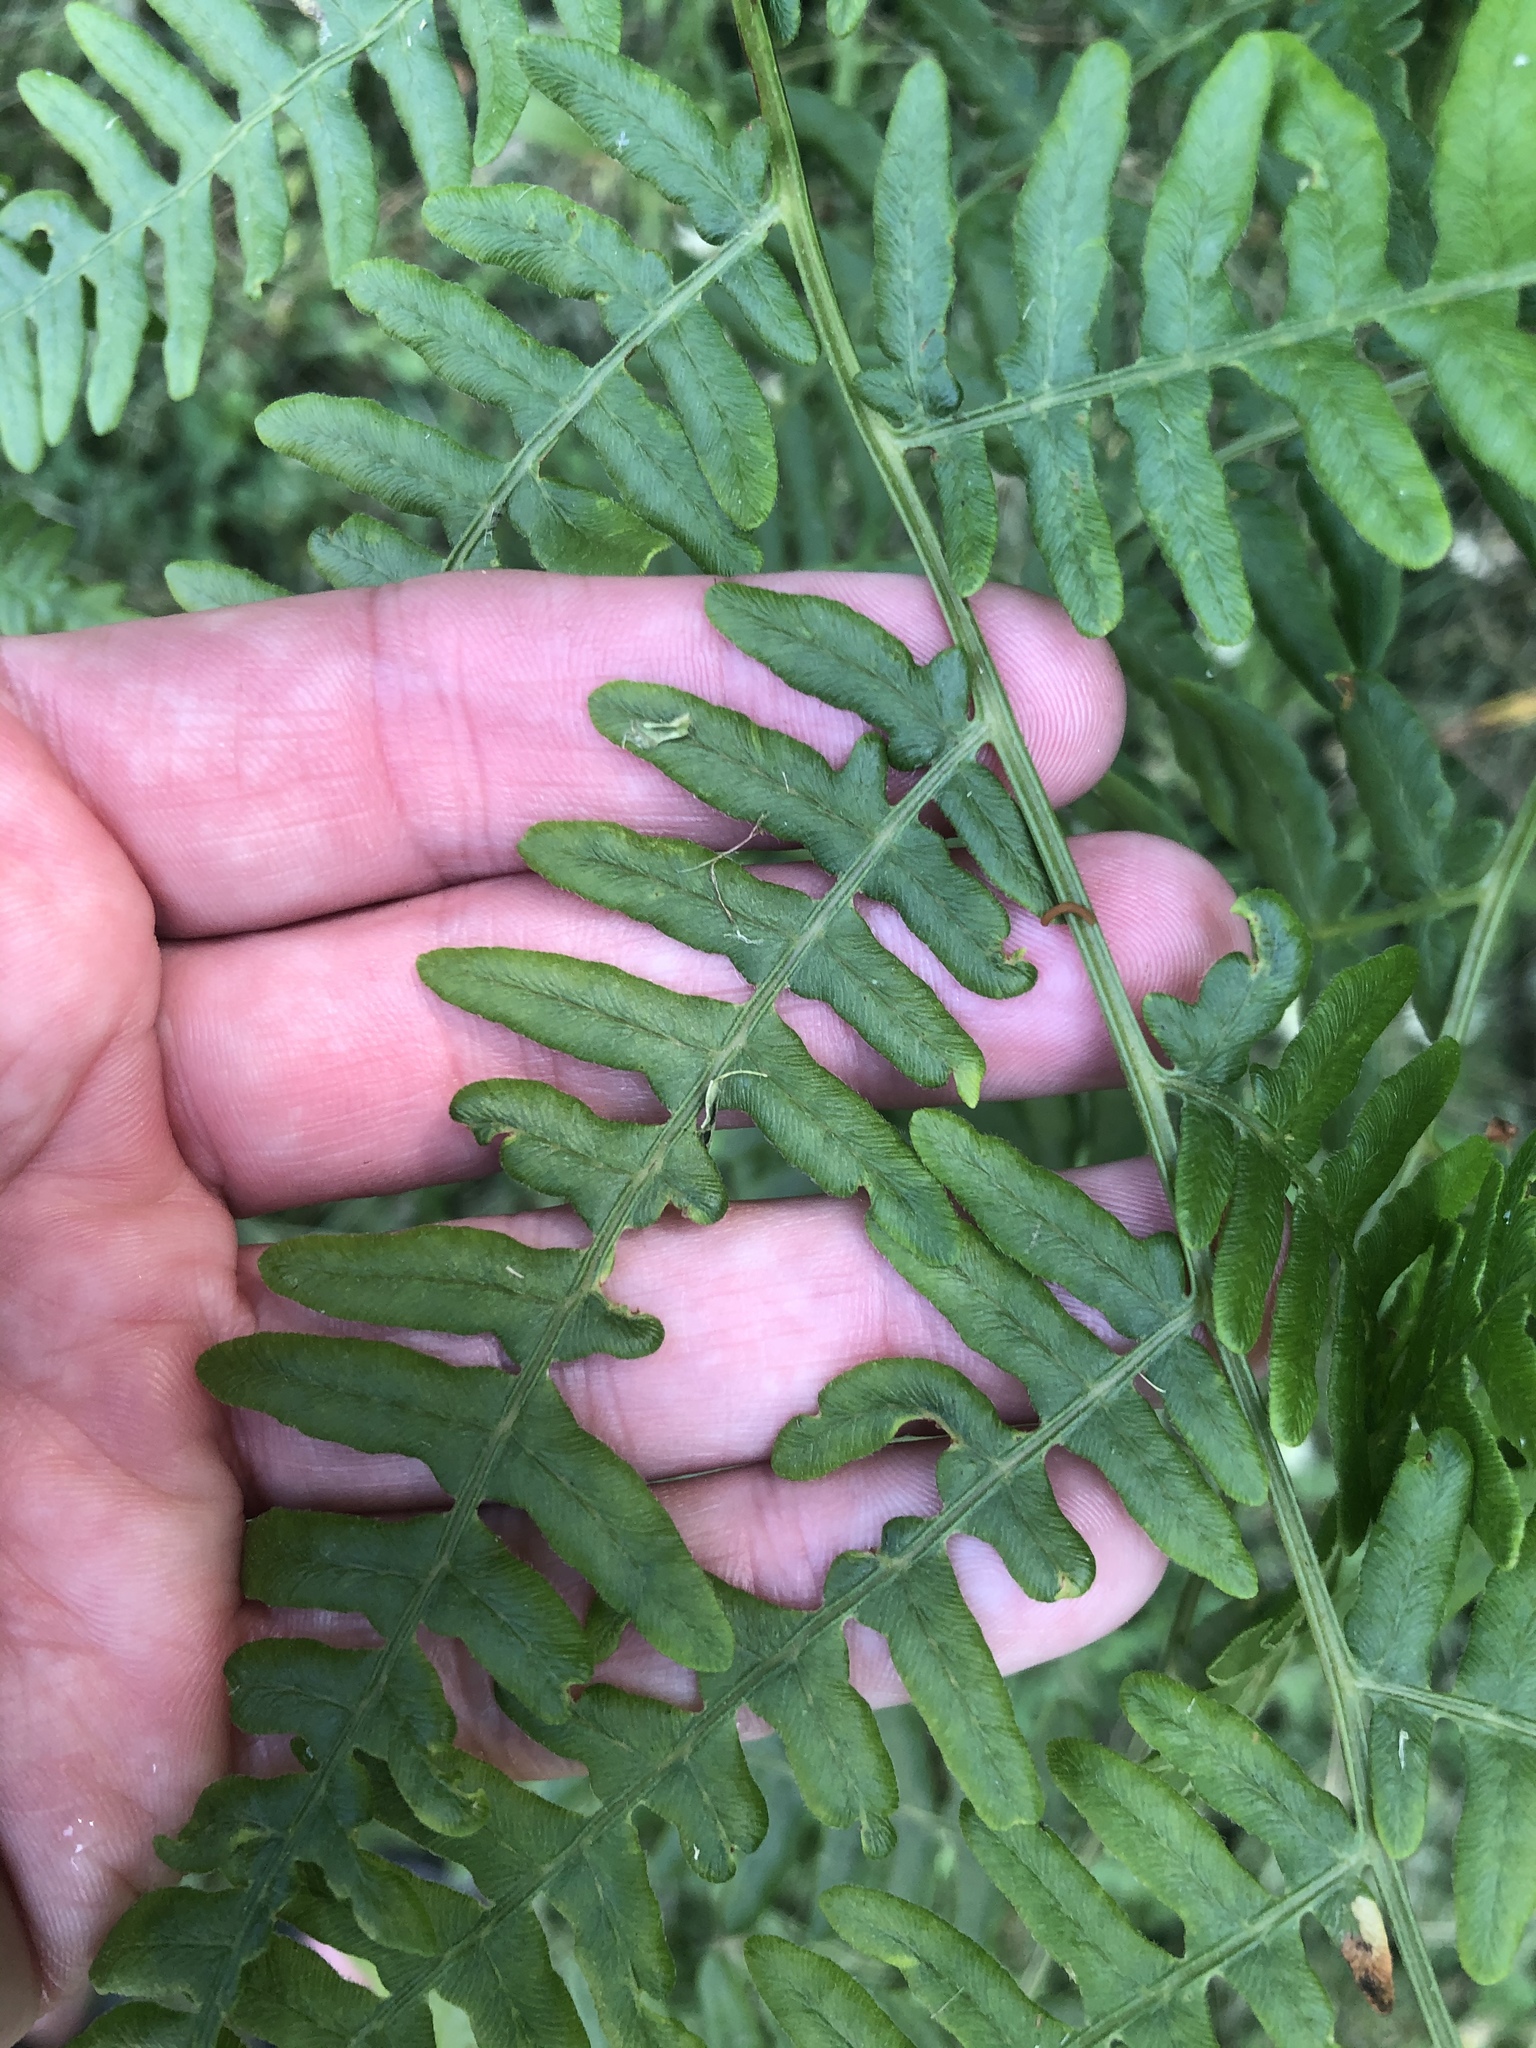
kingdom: Plantae
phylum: Tracheophyta
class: Polypodiopsida
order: Polypodiales
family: Dennstaedtiaceae
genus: Pteridium
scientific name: Pteridium aquilinum
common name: Bracken
